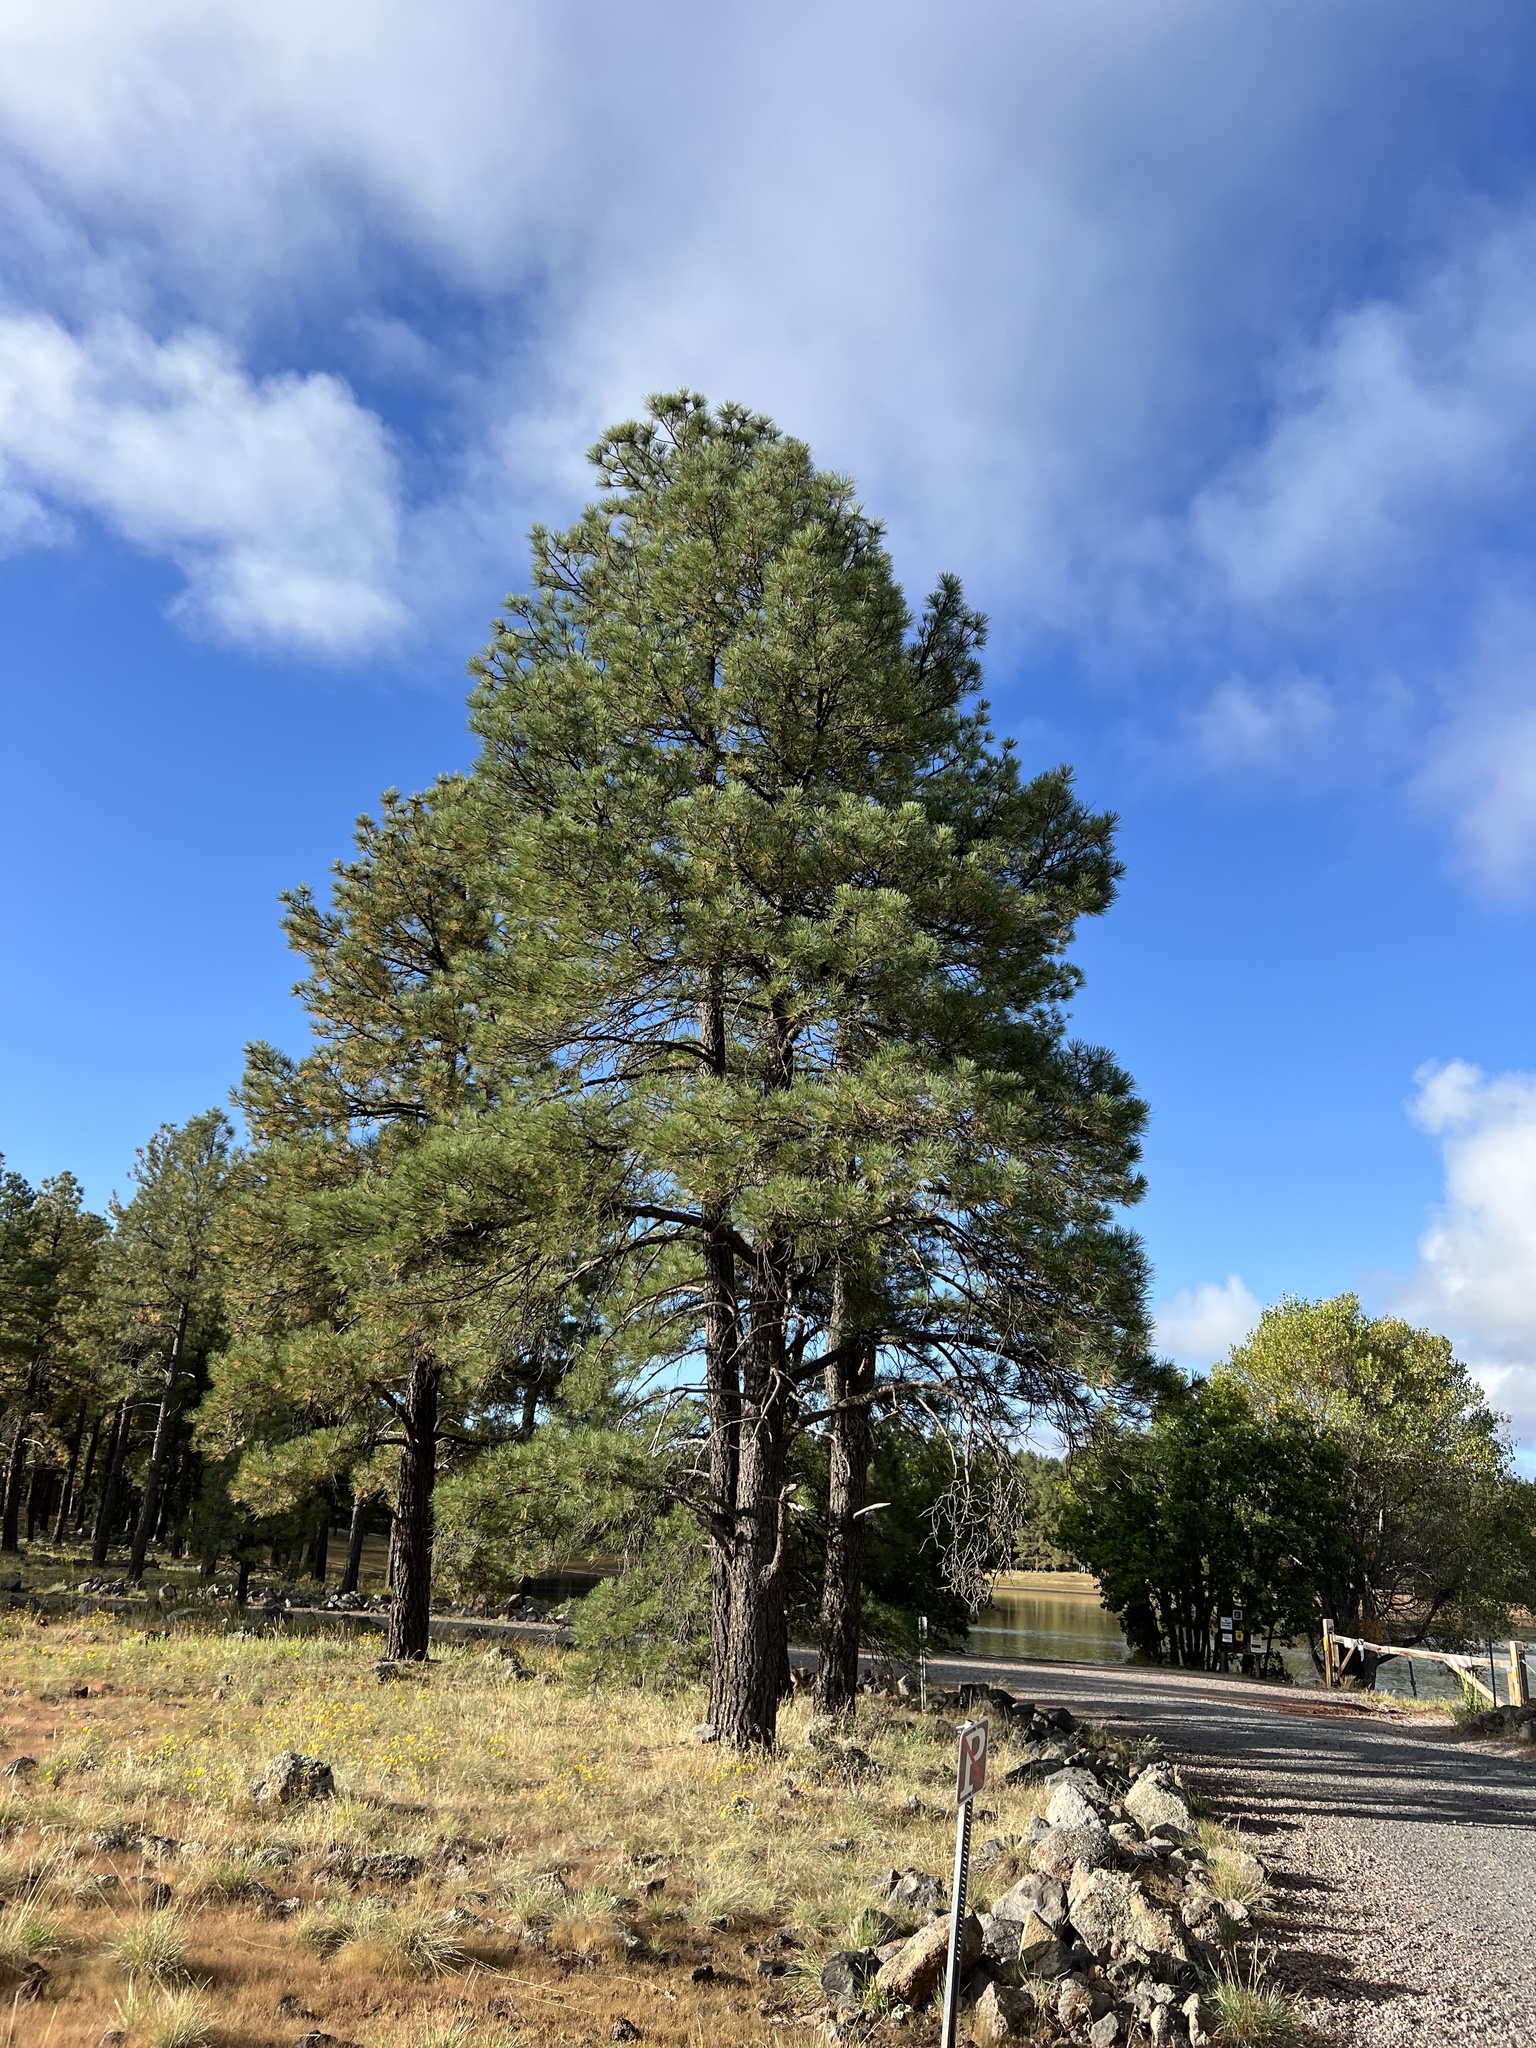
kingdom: Plantae
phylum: Tracheophyta
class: Pinopsida
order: Pinales
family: Pinaceae
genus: Pinus
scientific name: Pinus ponderosa
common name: Western yellow-pine
